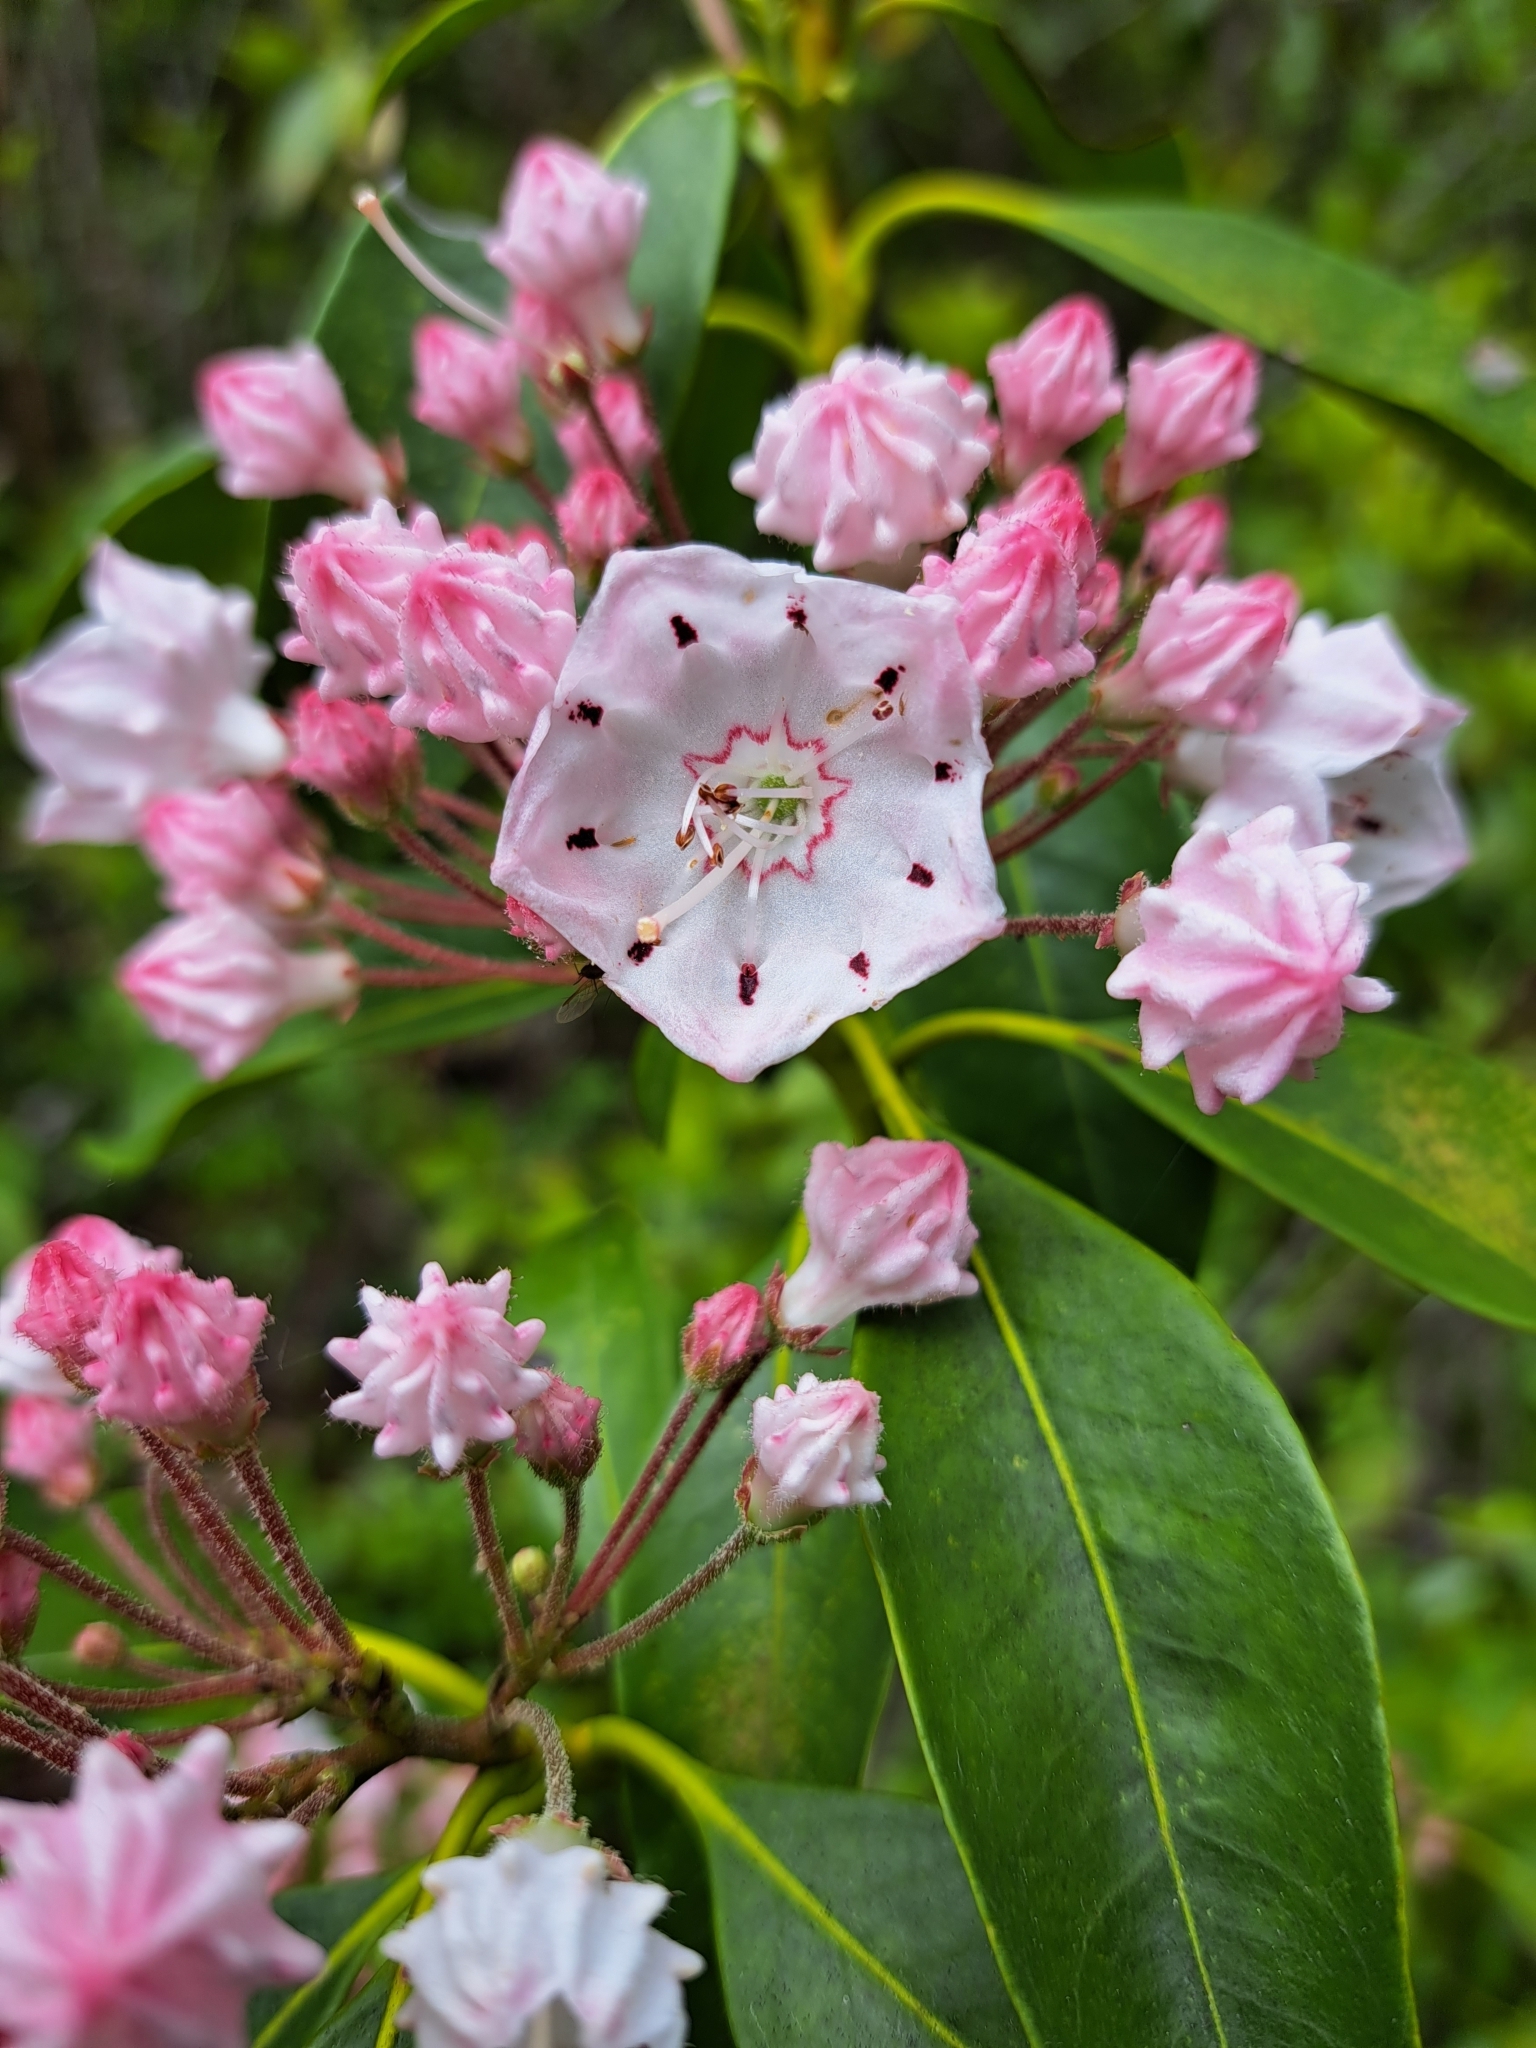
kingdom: Plantae
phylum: Tracheophyta
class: Magnoliopsida
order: Ericales
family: Ericaceae
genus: Kalmia
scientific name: Kalmia latifolia
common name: Mountain-laurel
